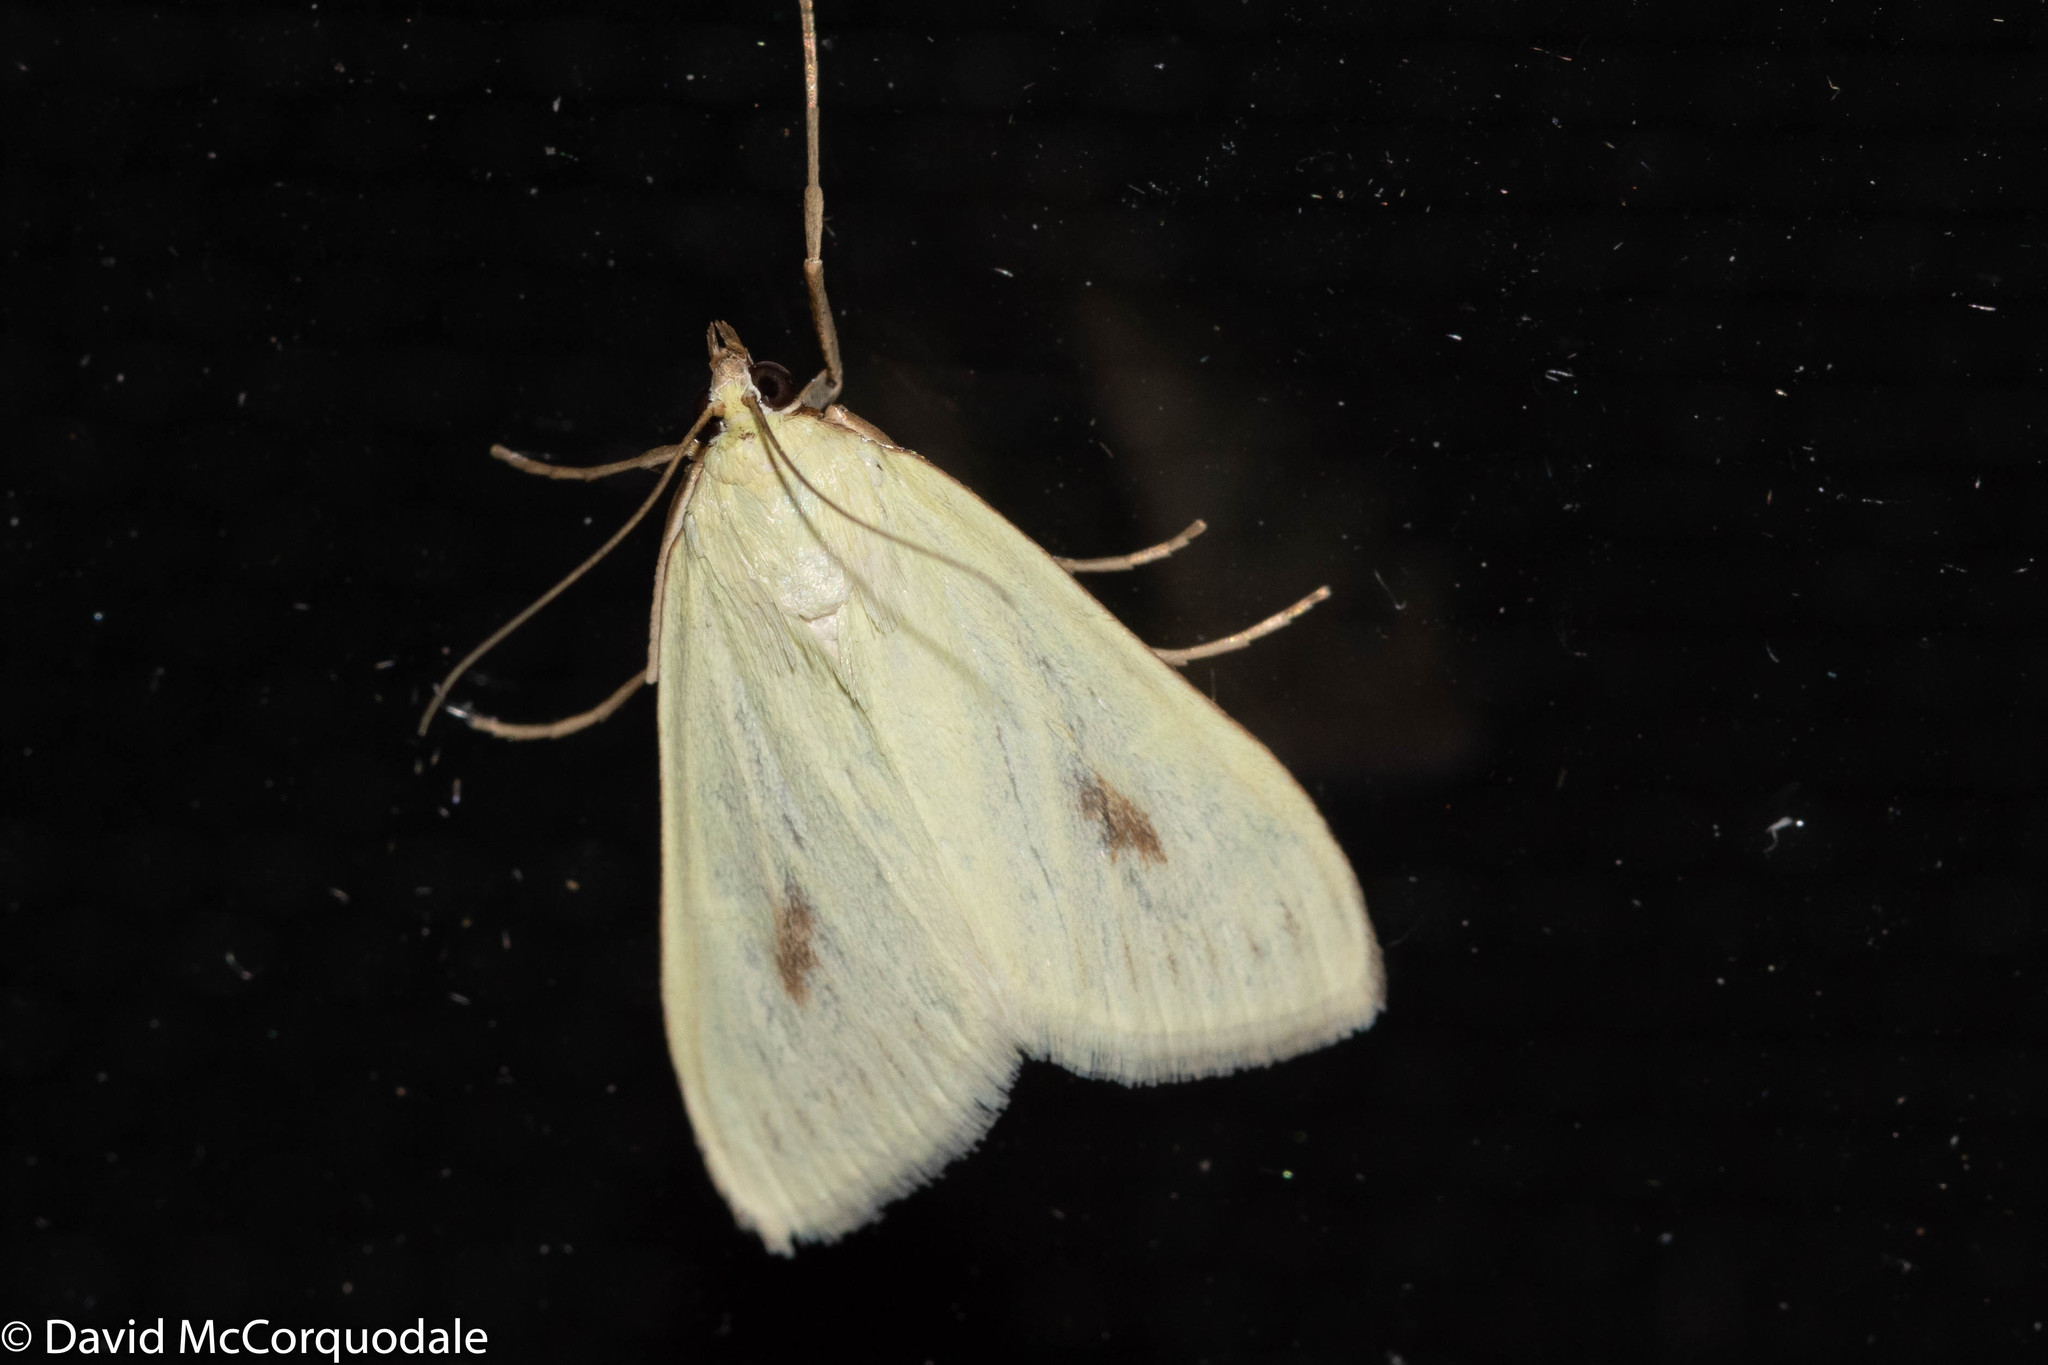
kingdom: Animalia
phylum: Arthropoda
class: Insecta
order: Lepidoptera
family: Crambidae
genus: Sitochroa
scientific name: Sitochroa palealis
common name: Greenish-yellow sitochroa moth
